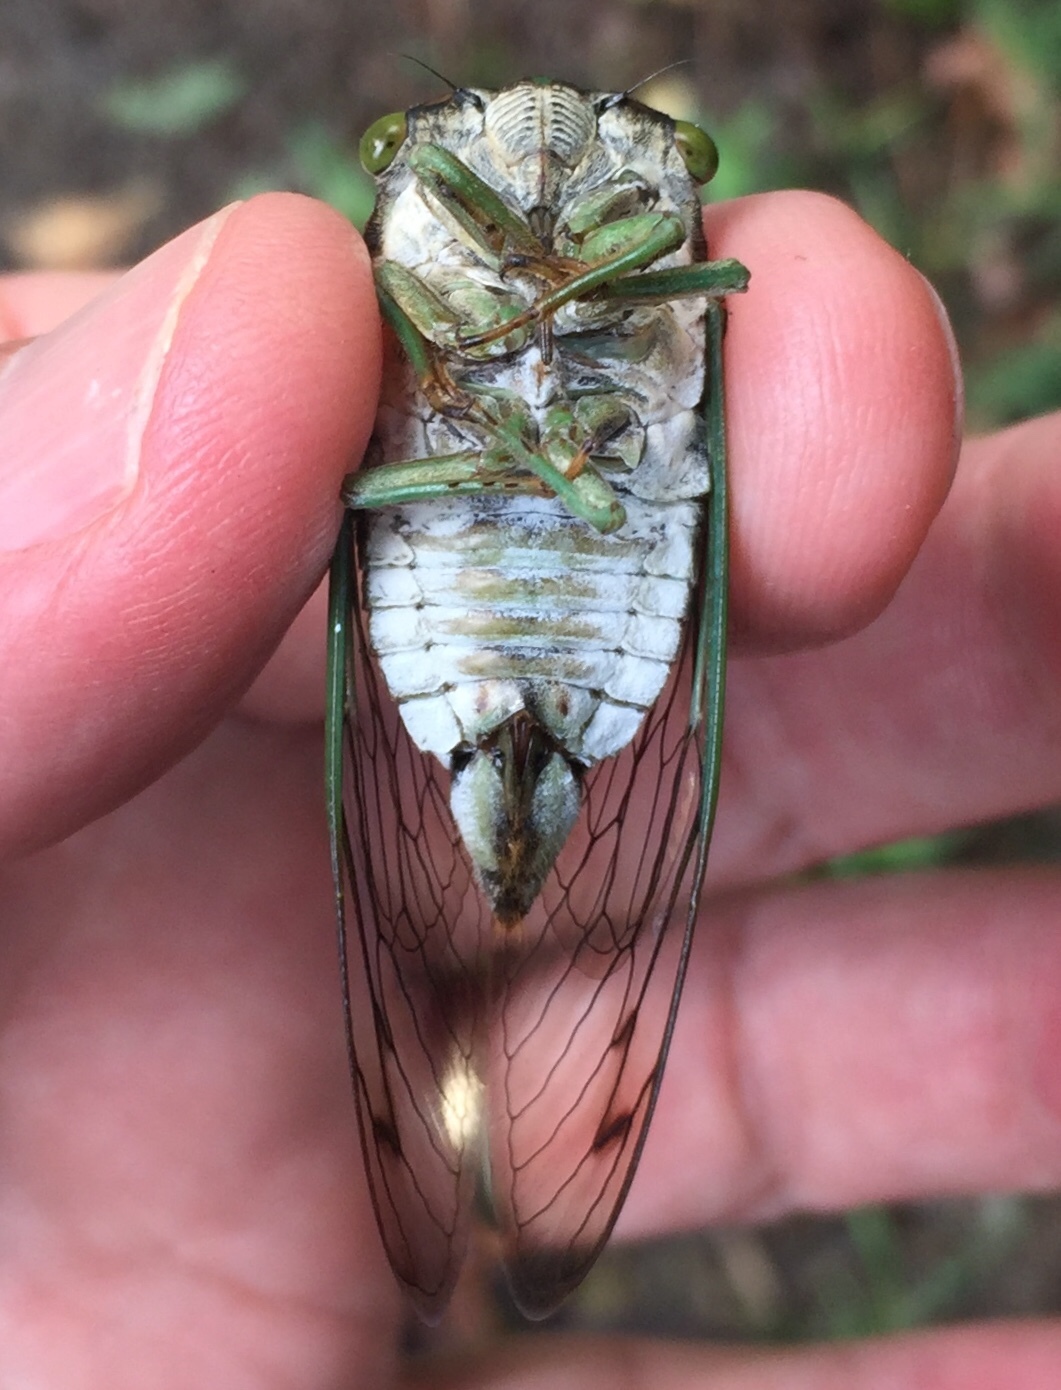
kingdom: Animalia
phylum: Arthropoda
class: Insecta
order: Hemiptera
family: Cicadidae
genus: Neotibicen
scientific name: Neotibicen tibicen
